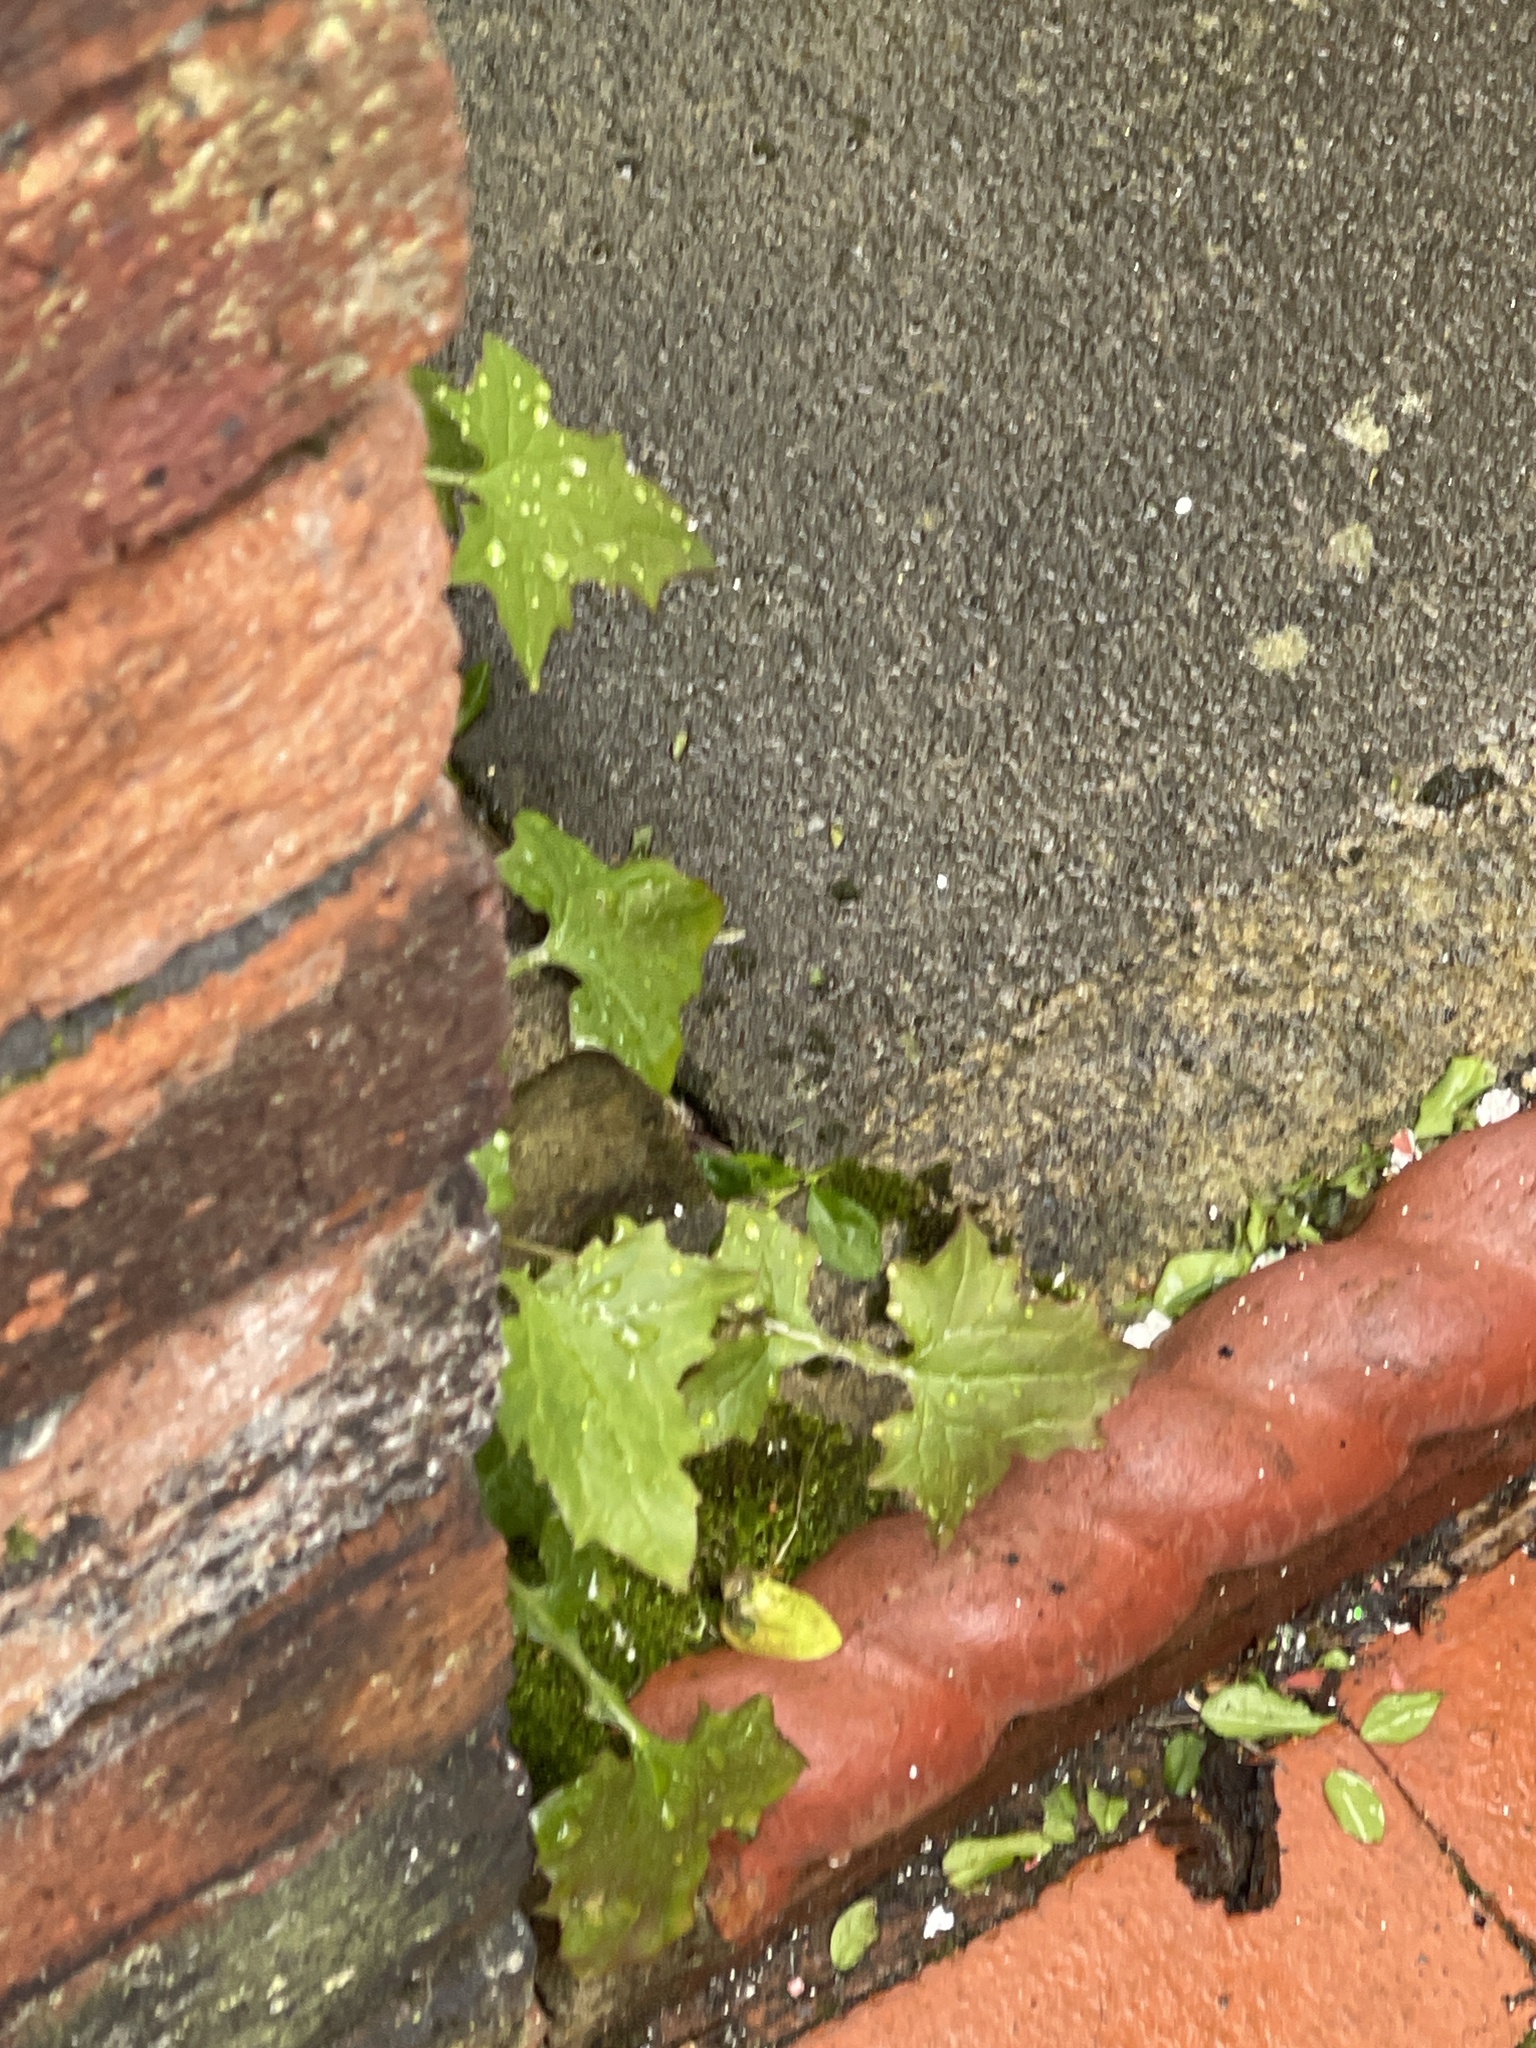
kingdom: Plantae
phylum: Tracheophyta
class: Magnoliopsida
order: Asterales
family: Asteraceae
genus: Mycelis
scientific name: Mycelis muralis
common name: Wall lettuce
